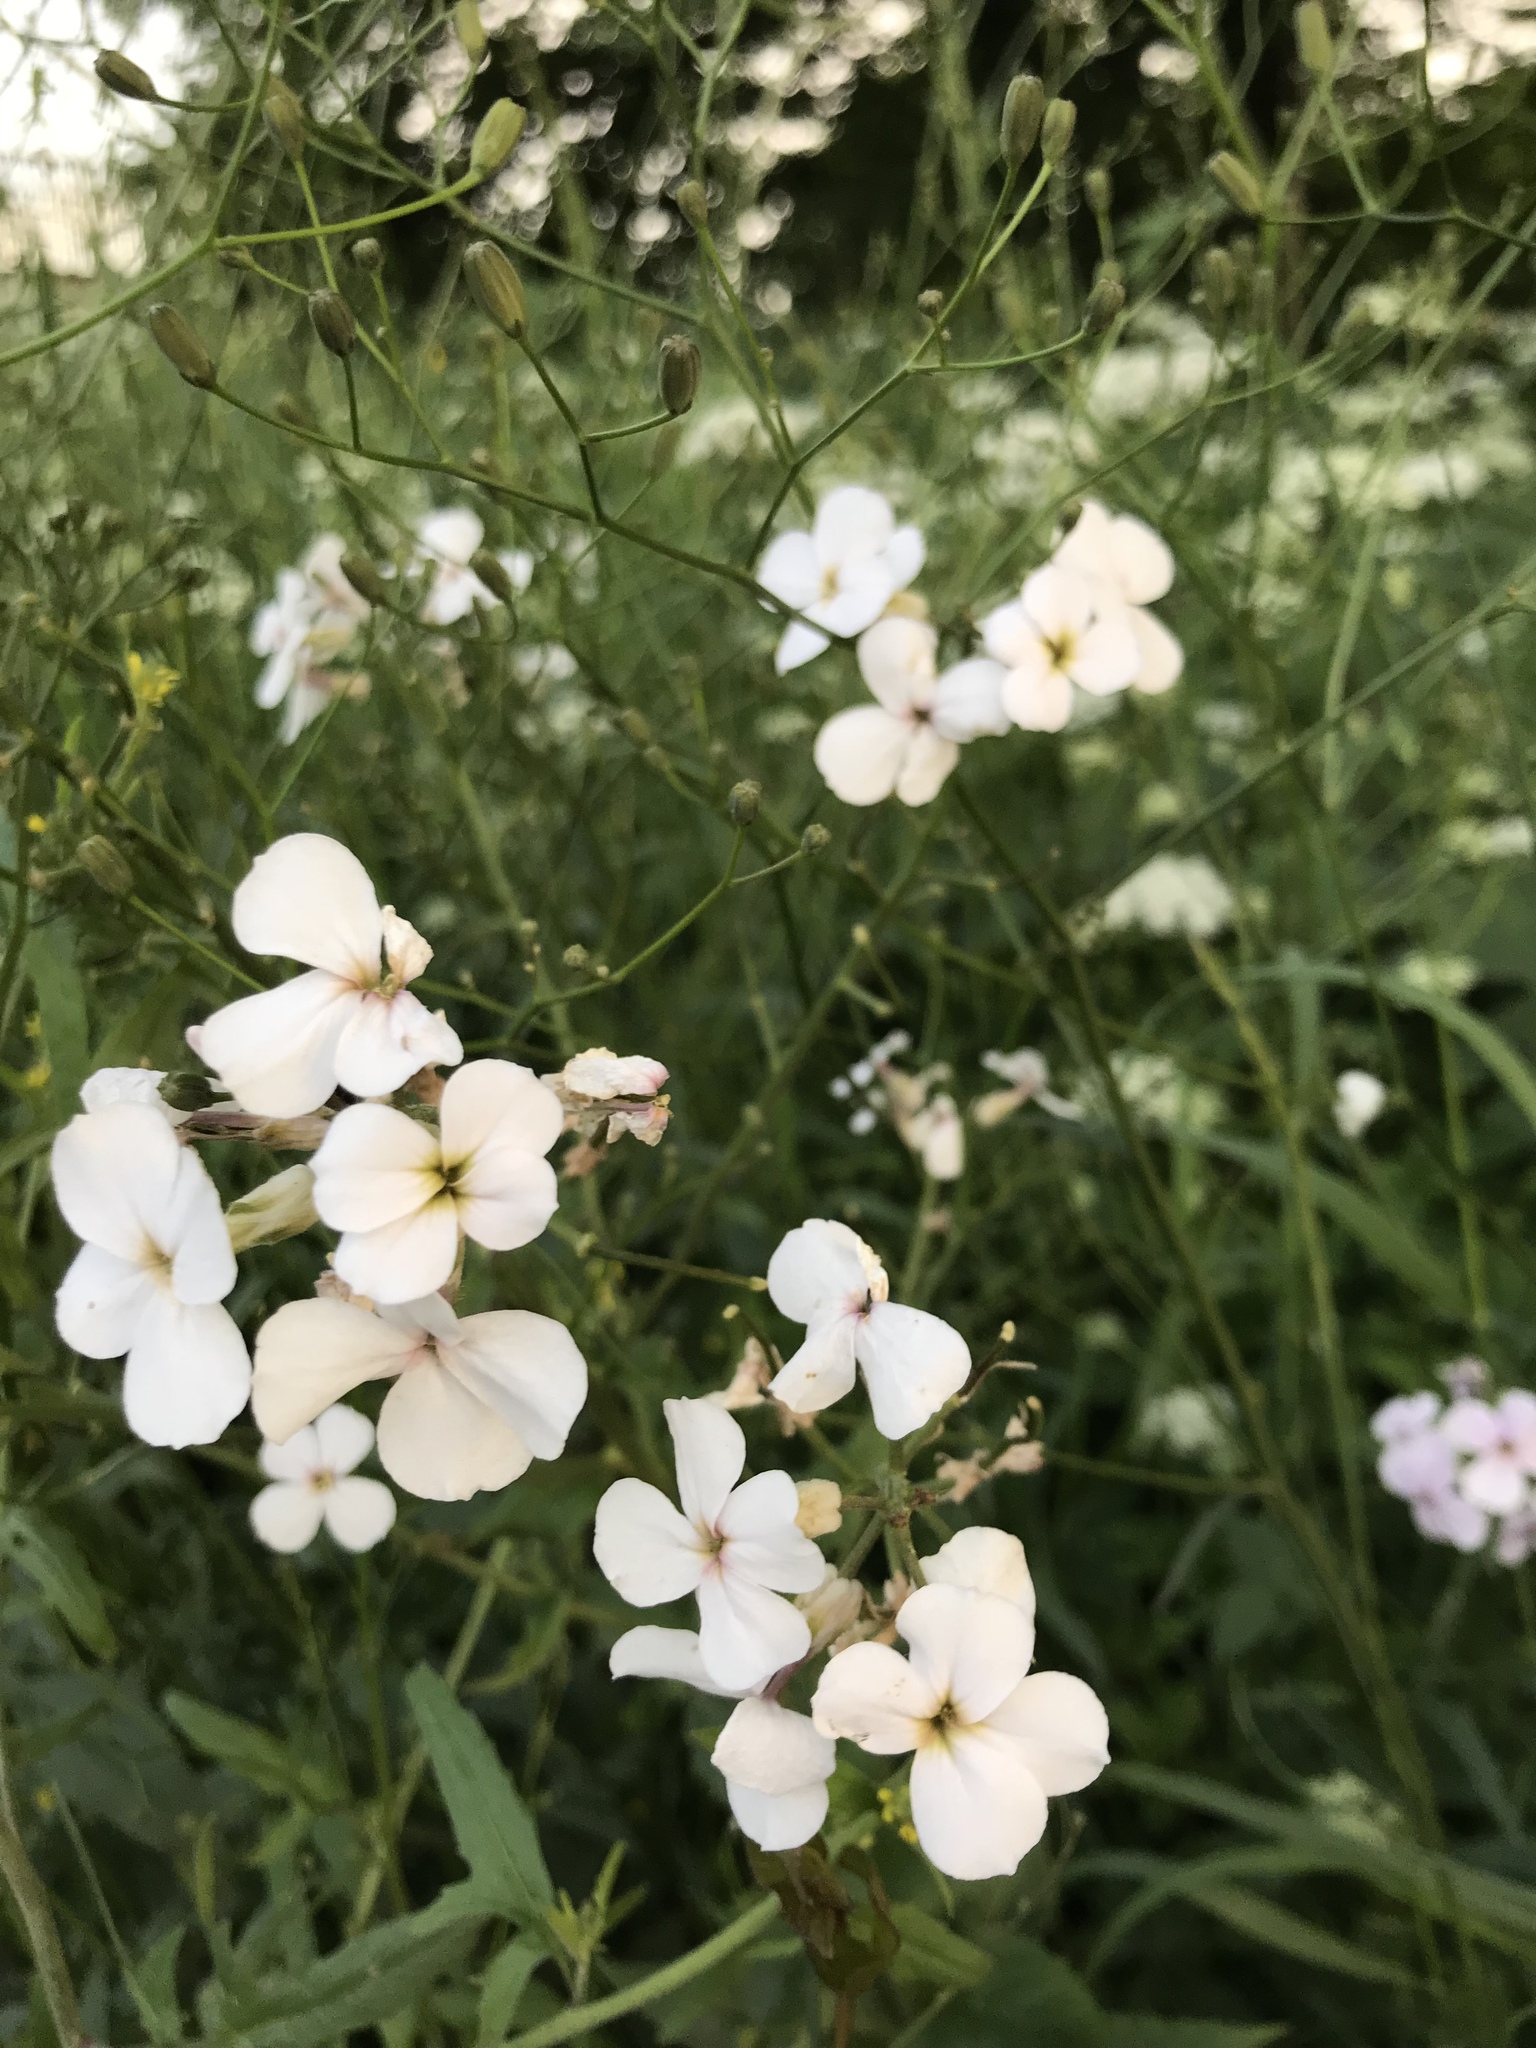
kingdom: Plantae
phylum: Tracheophyta
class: Magnoliopsida
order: Brassicales
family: Brassicaceae
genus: Hesperis
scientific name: Hesperis matronalis
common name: Dame's-violet
